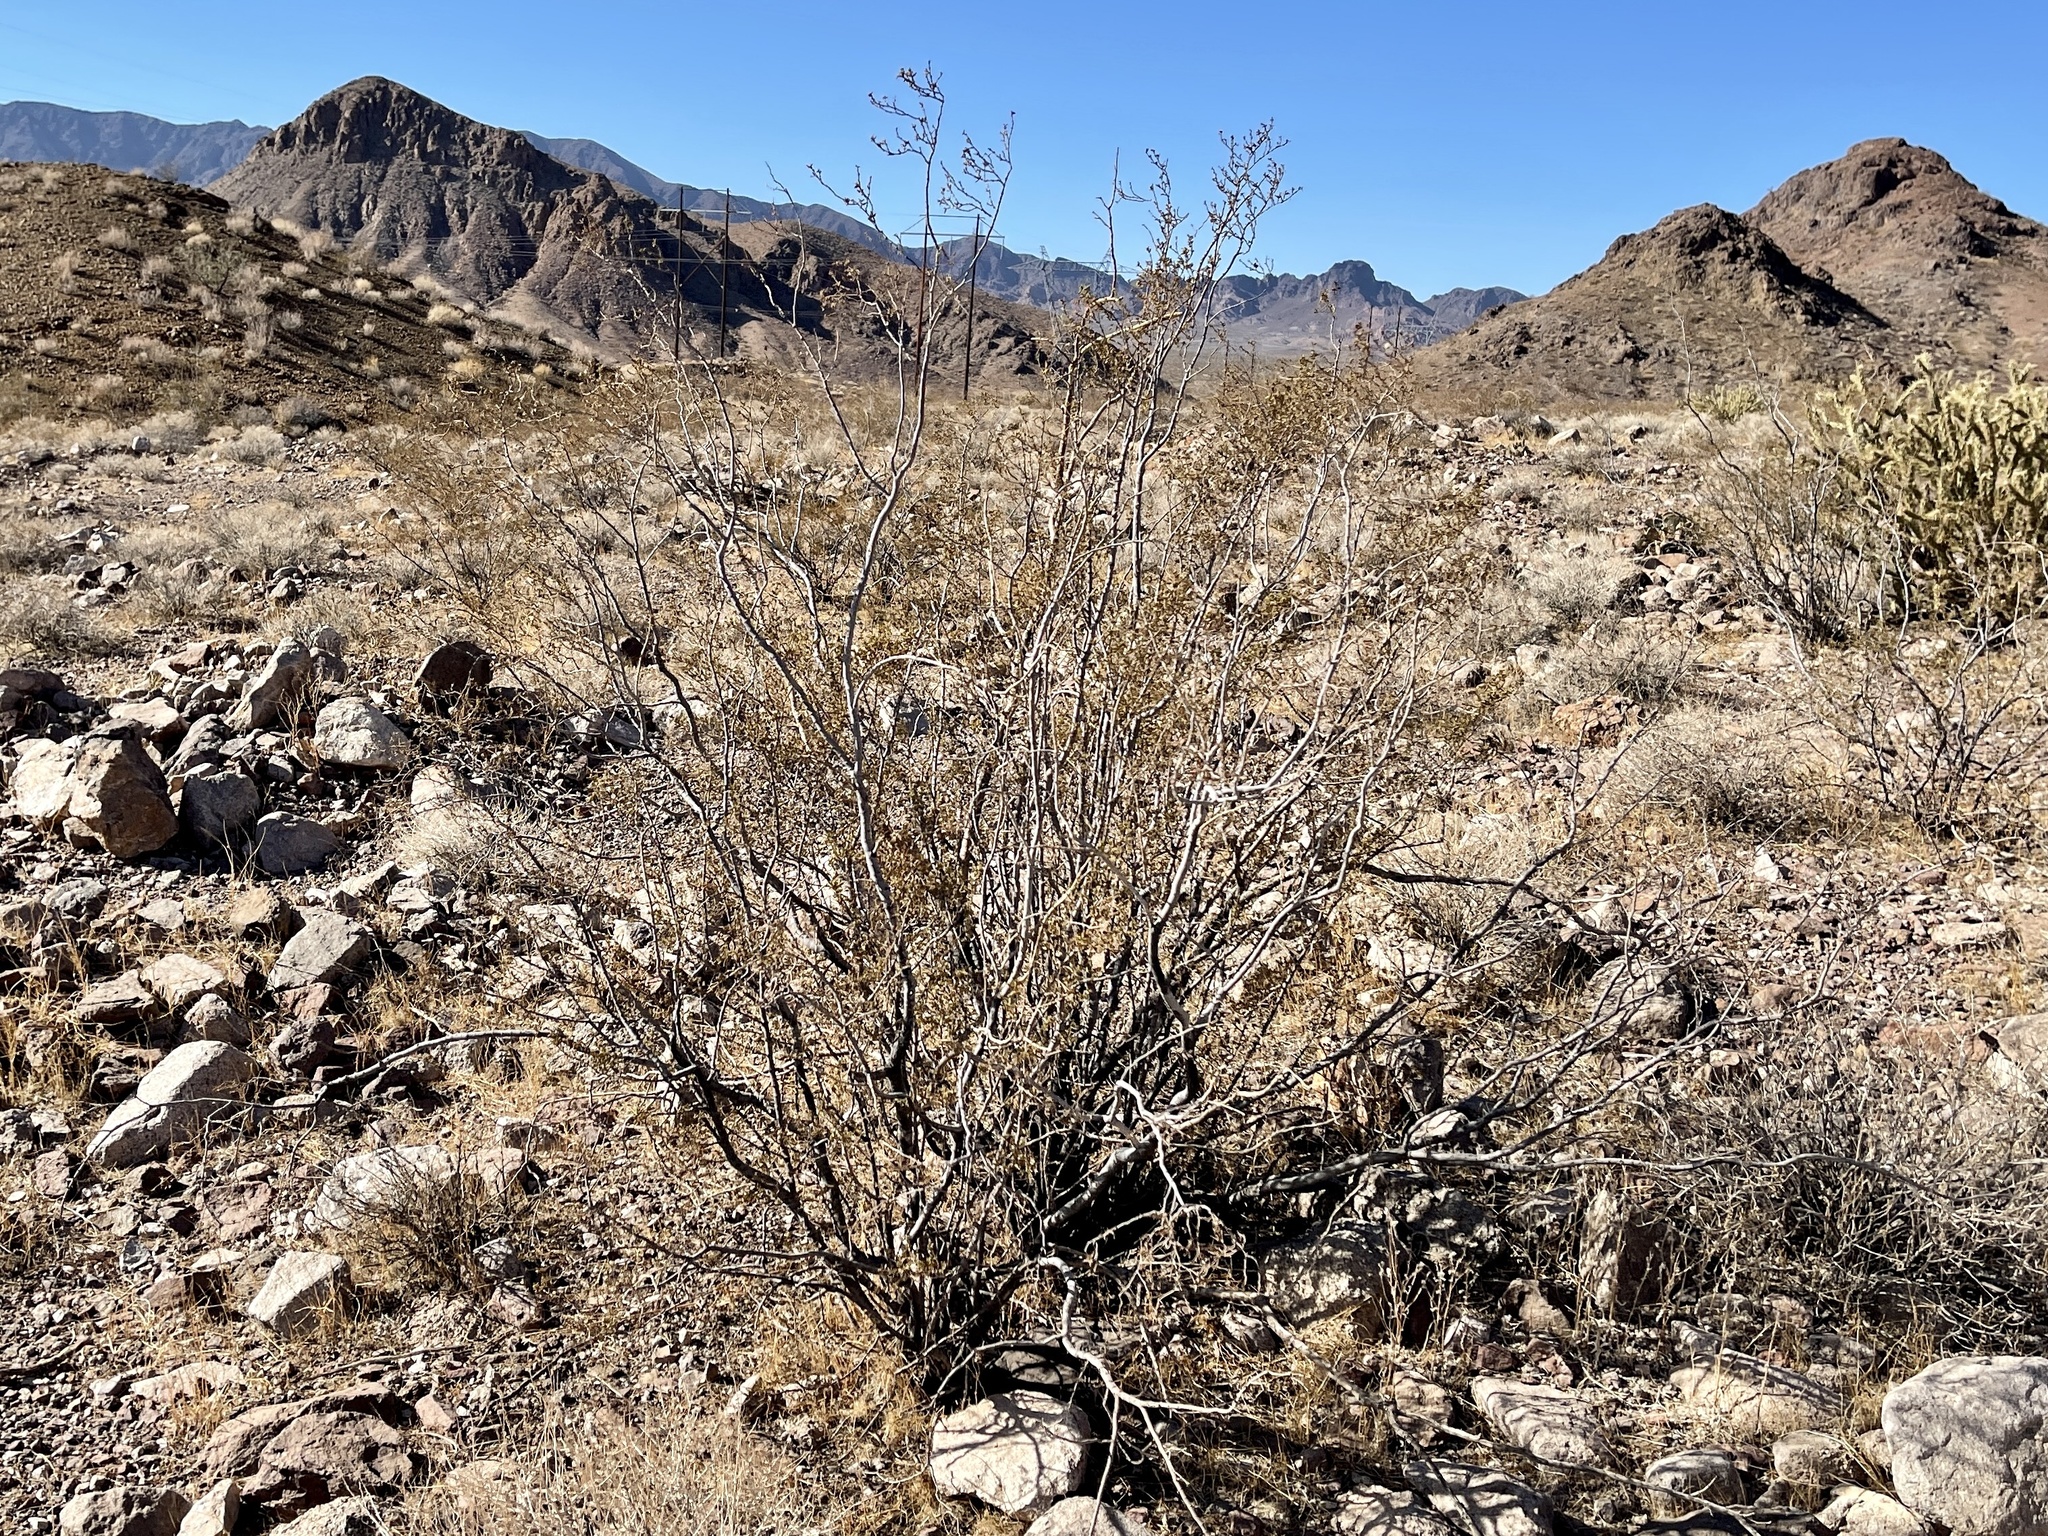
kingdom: Plantae
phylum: Tracheophyta
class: Magnoliopsida
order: Zygophyllales
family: Zygophyllaceae
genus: Larrea
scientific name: Larrea tridentata
